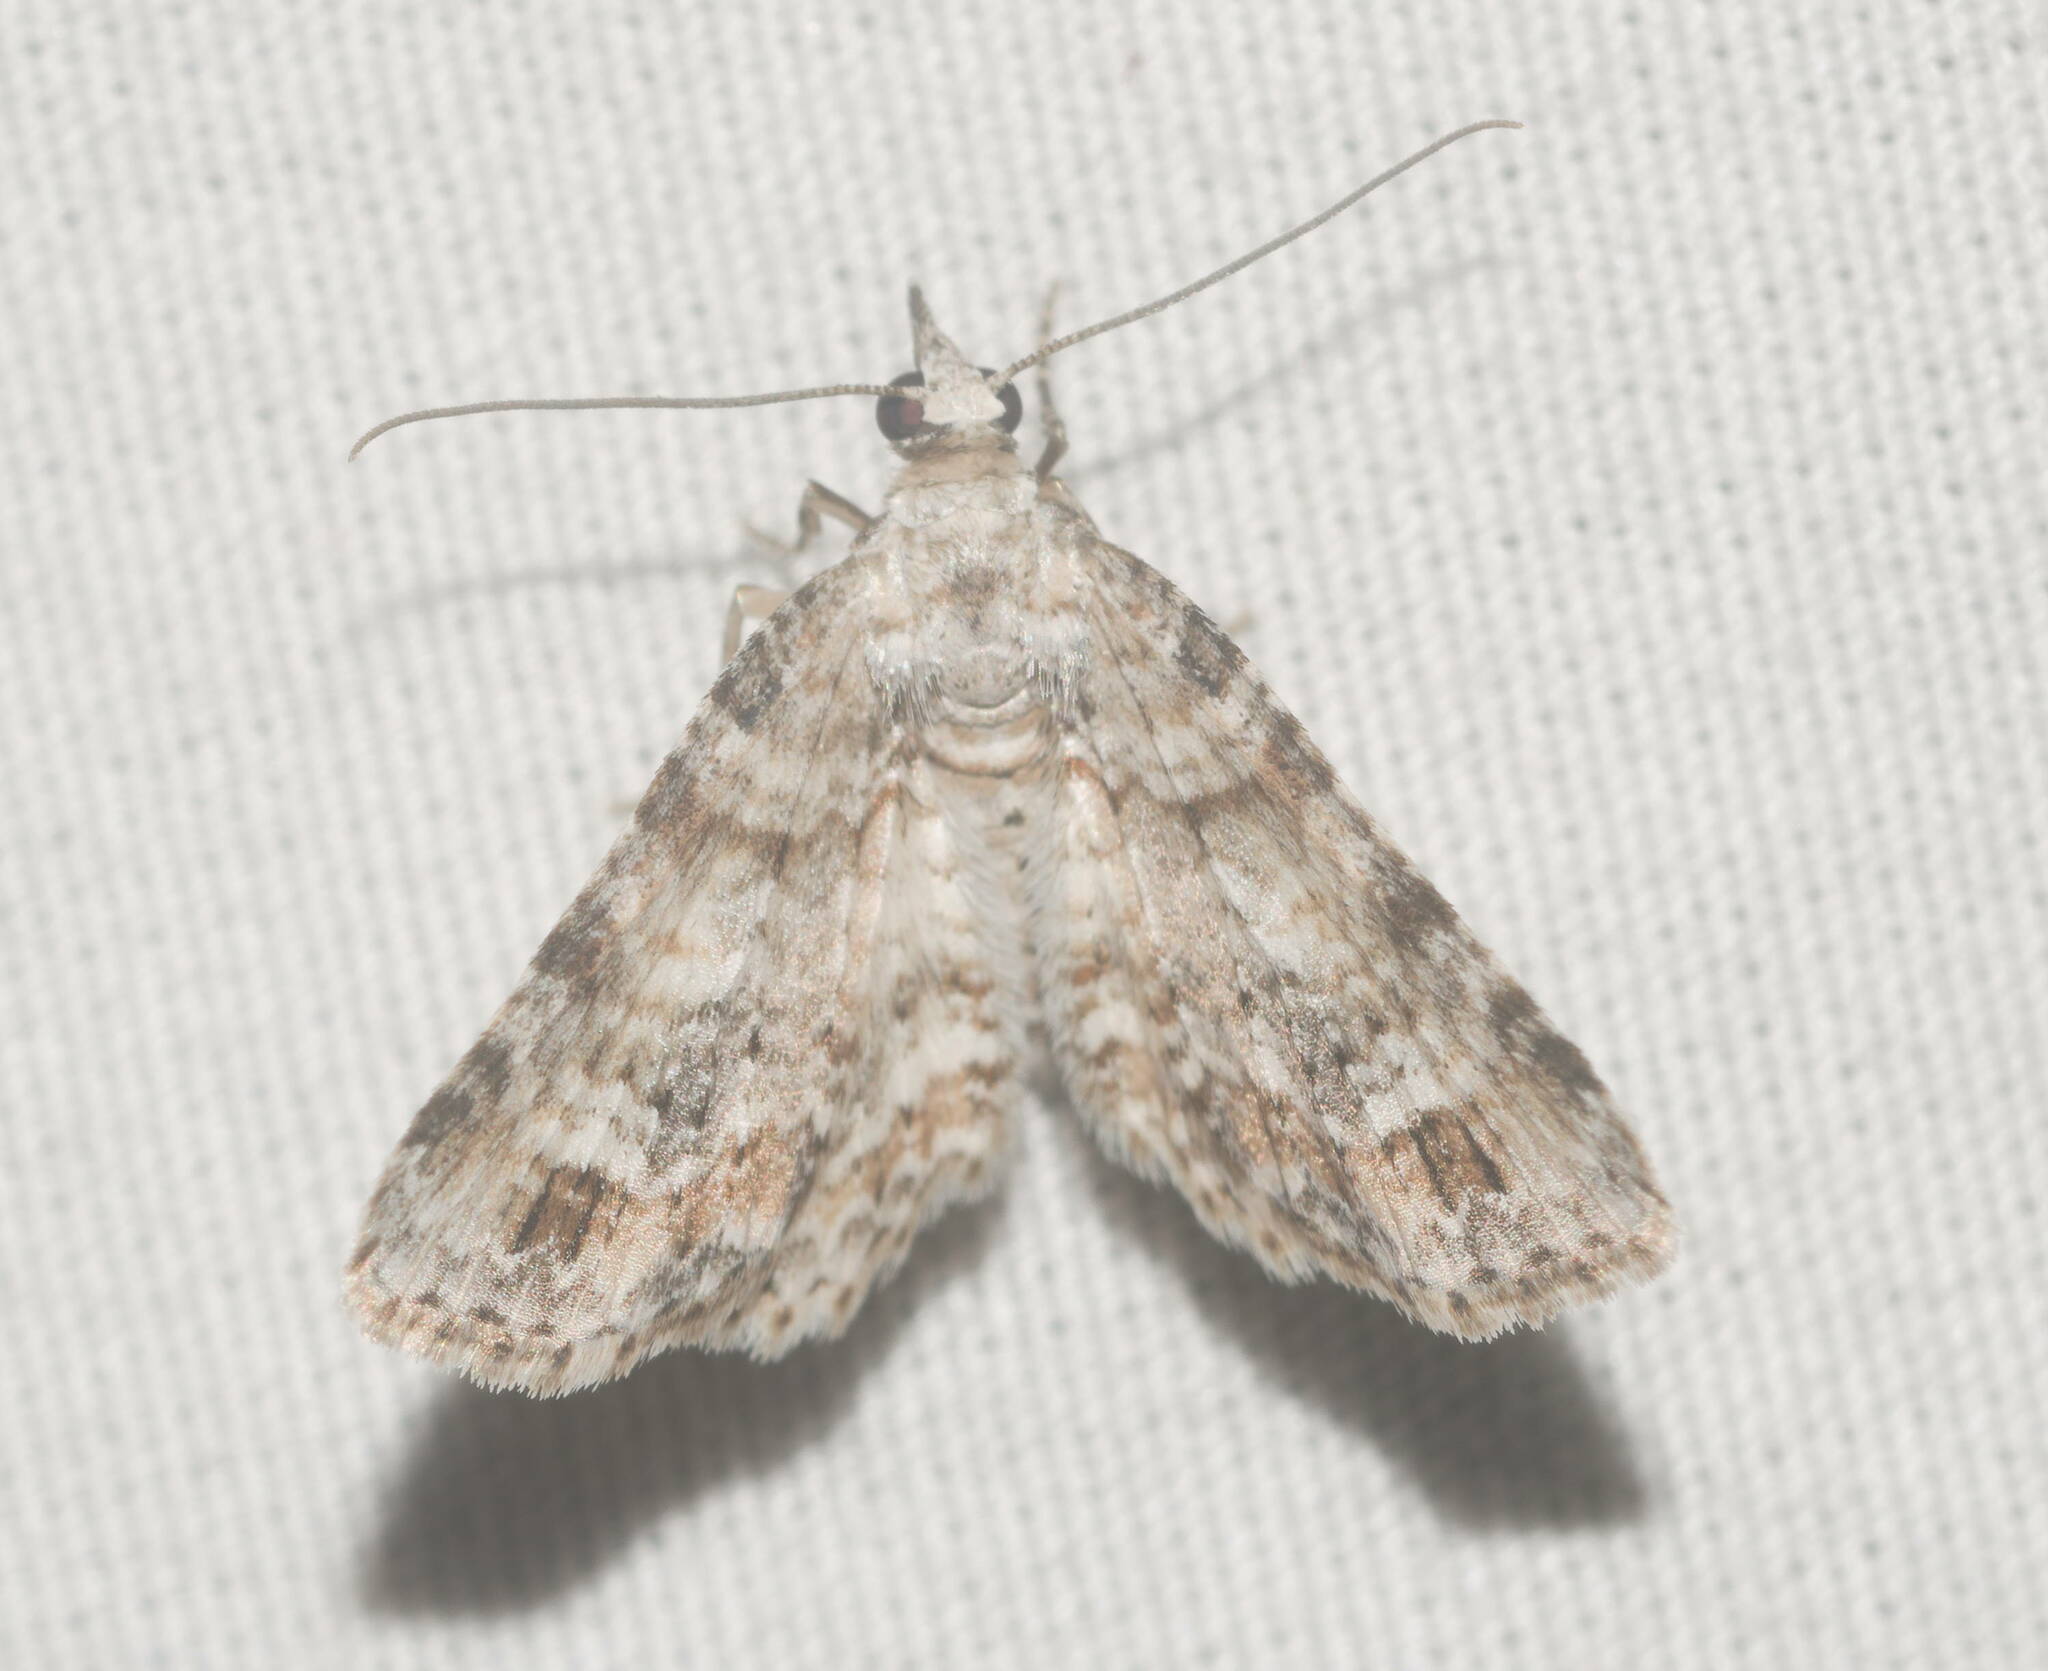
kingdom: Animalia
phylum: Arthropoda
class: Insecta
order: Lepidoptera
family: Geometridae
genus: Eupithecia
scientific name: Eupithecia monticolens
